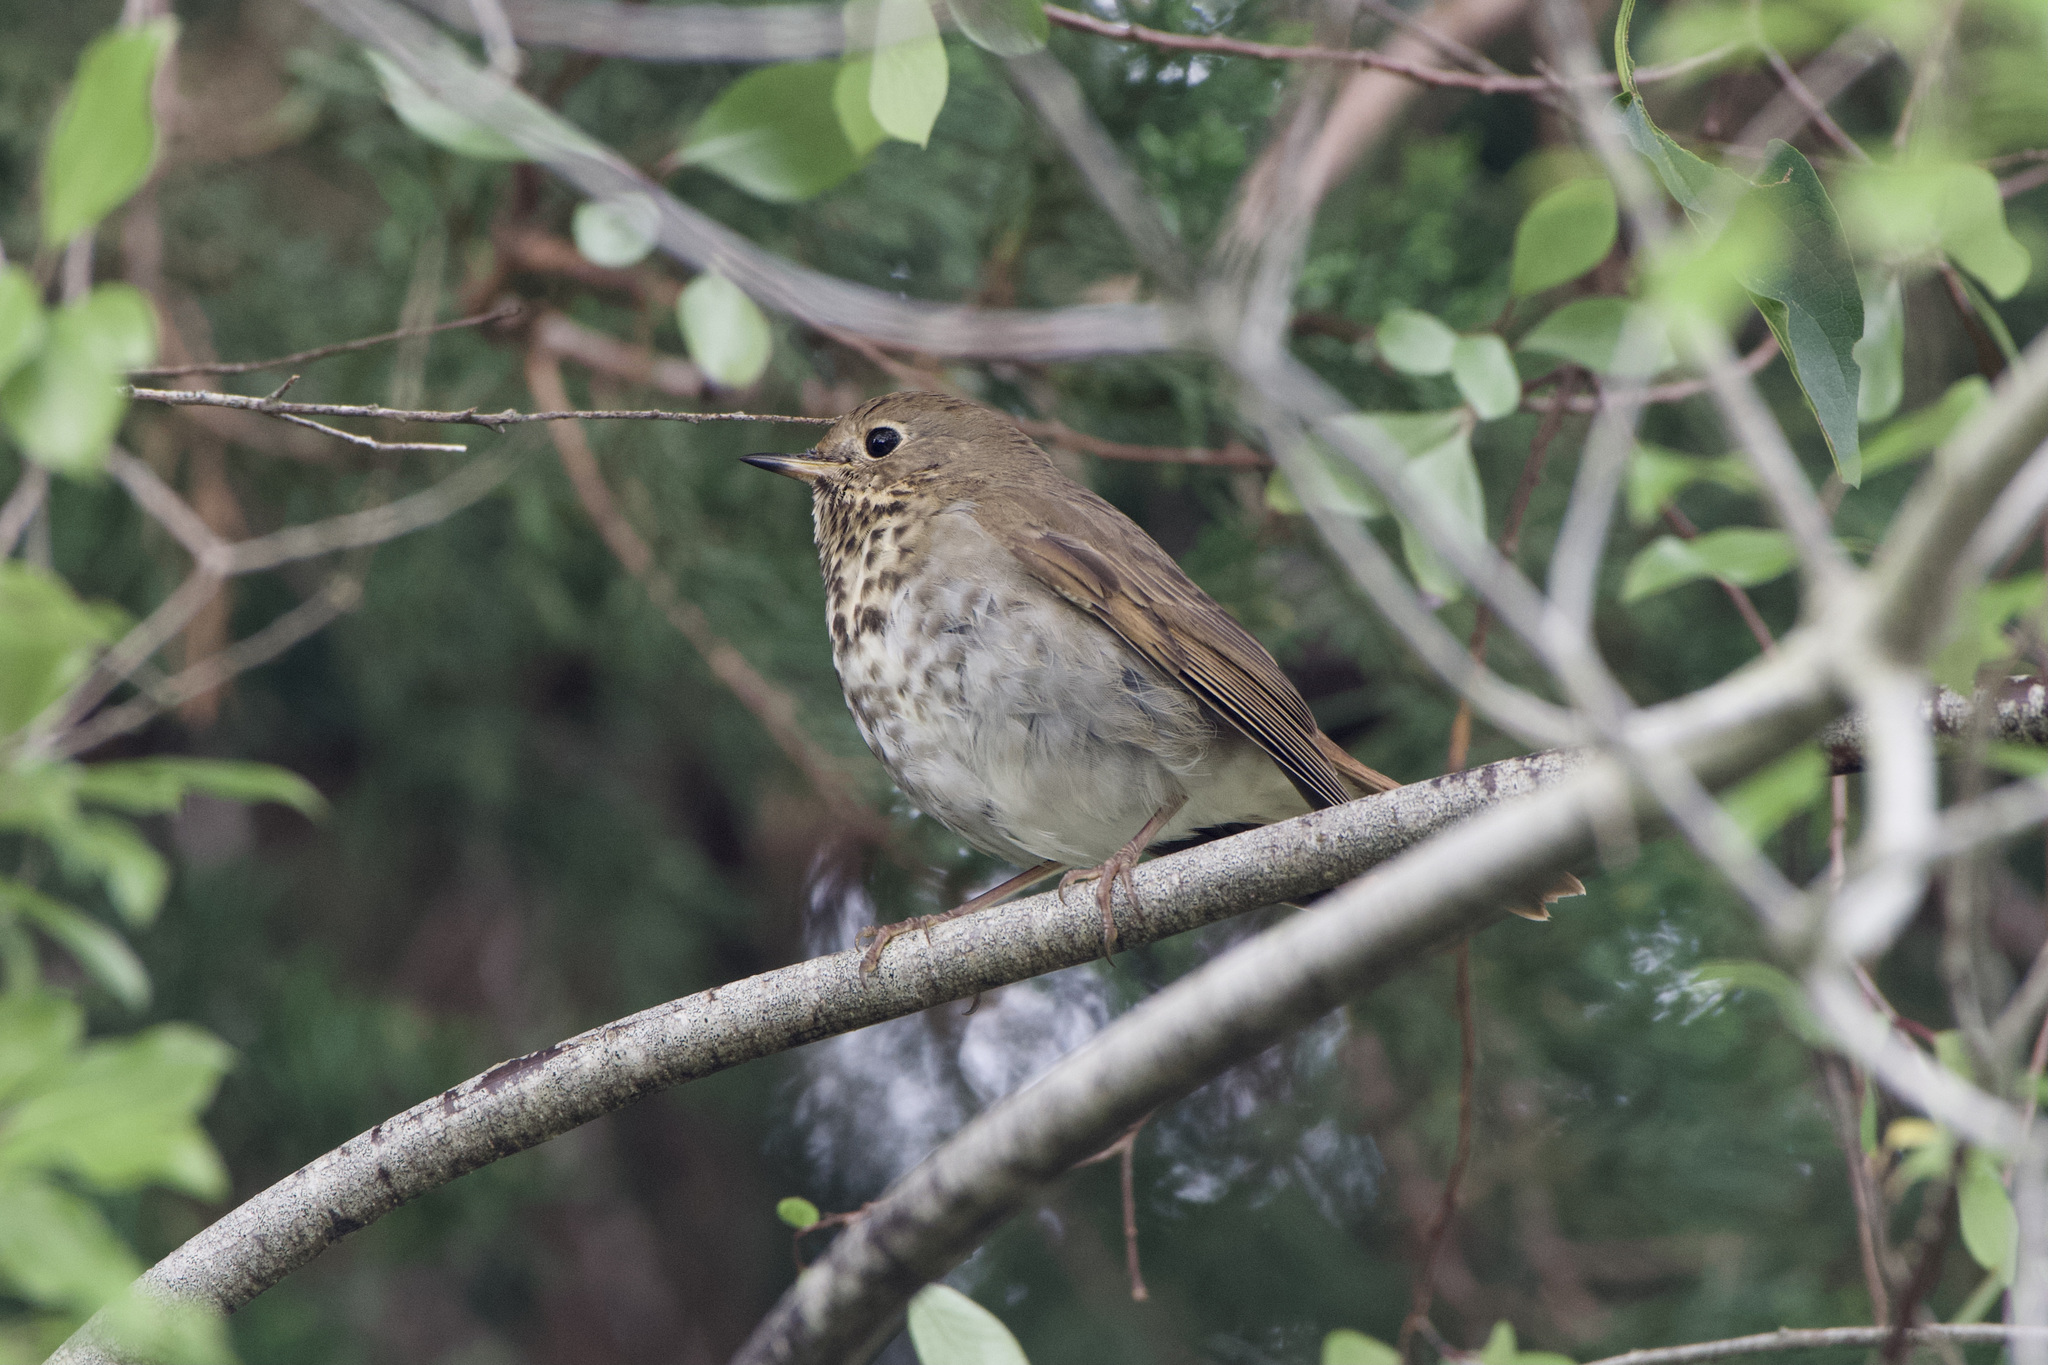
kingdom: Animalia
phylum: Chordata
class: Aves
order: Passeriformes
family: Turdidae
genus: Catharus
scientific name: Catharus guttatus
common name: Hermit thrush
